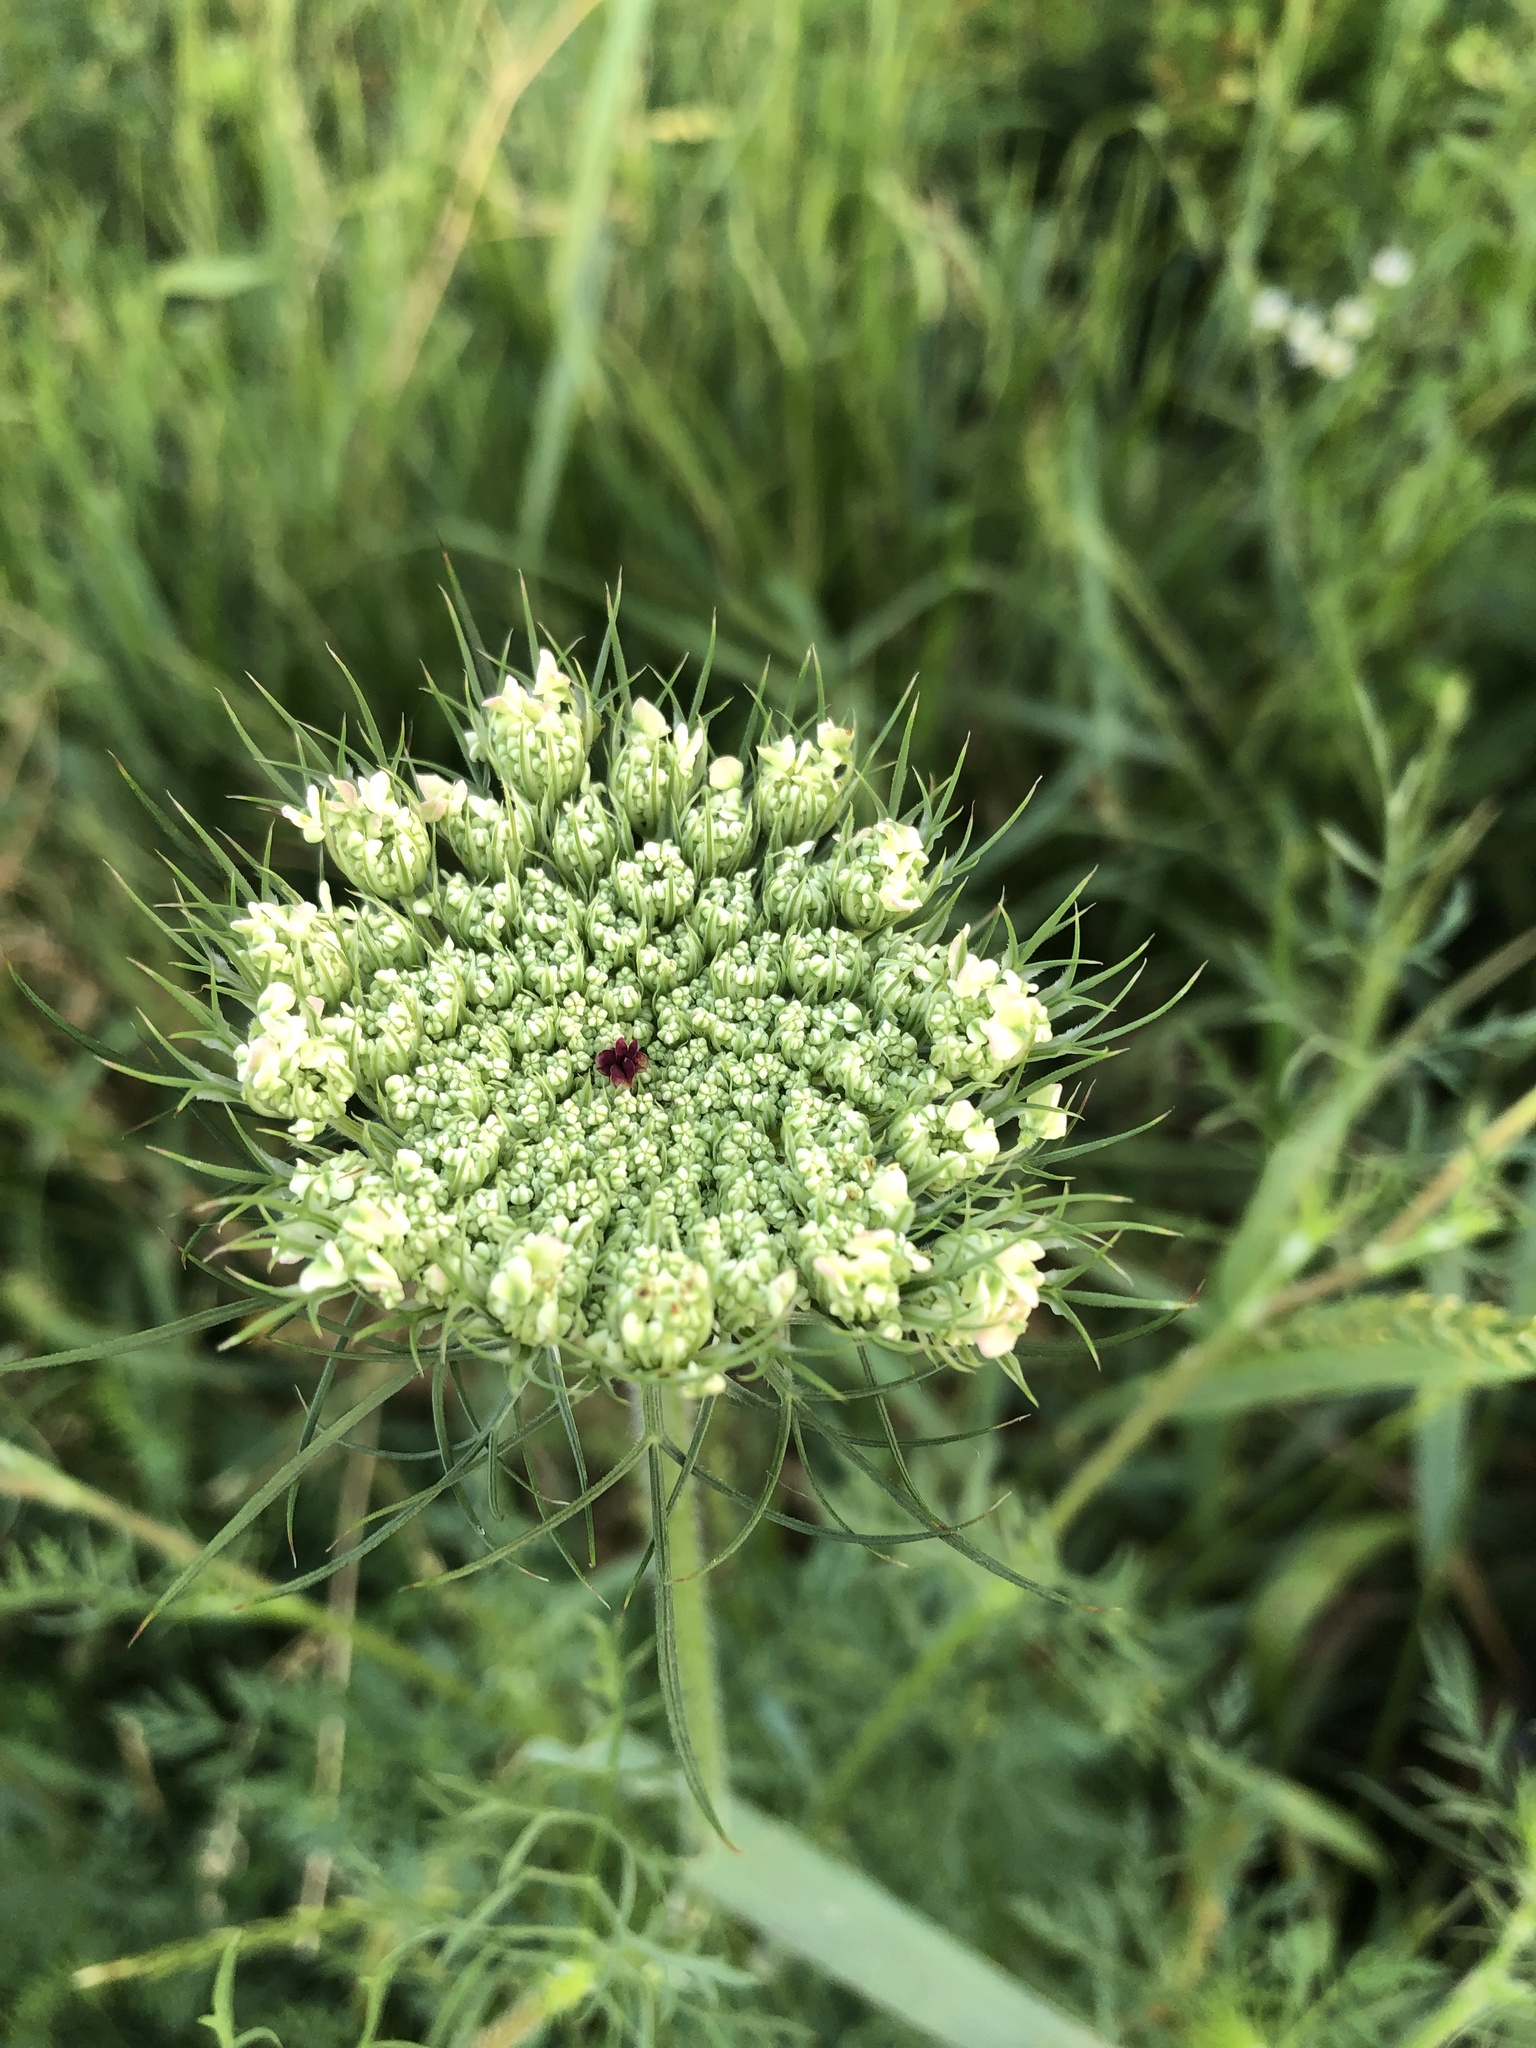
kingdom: Plantae
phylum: Tracheophyta
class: Magnoliopsida
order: Apiales
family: Apiaceae
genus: Daucus
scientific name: Daucus carota
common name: Wild carrot
